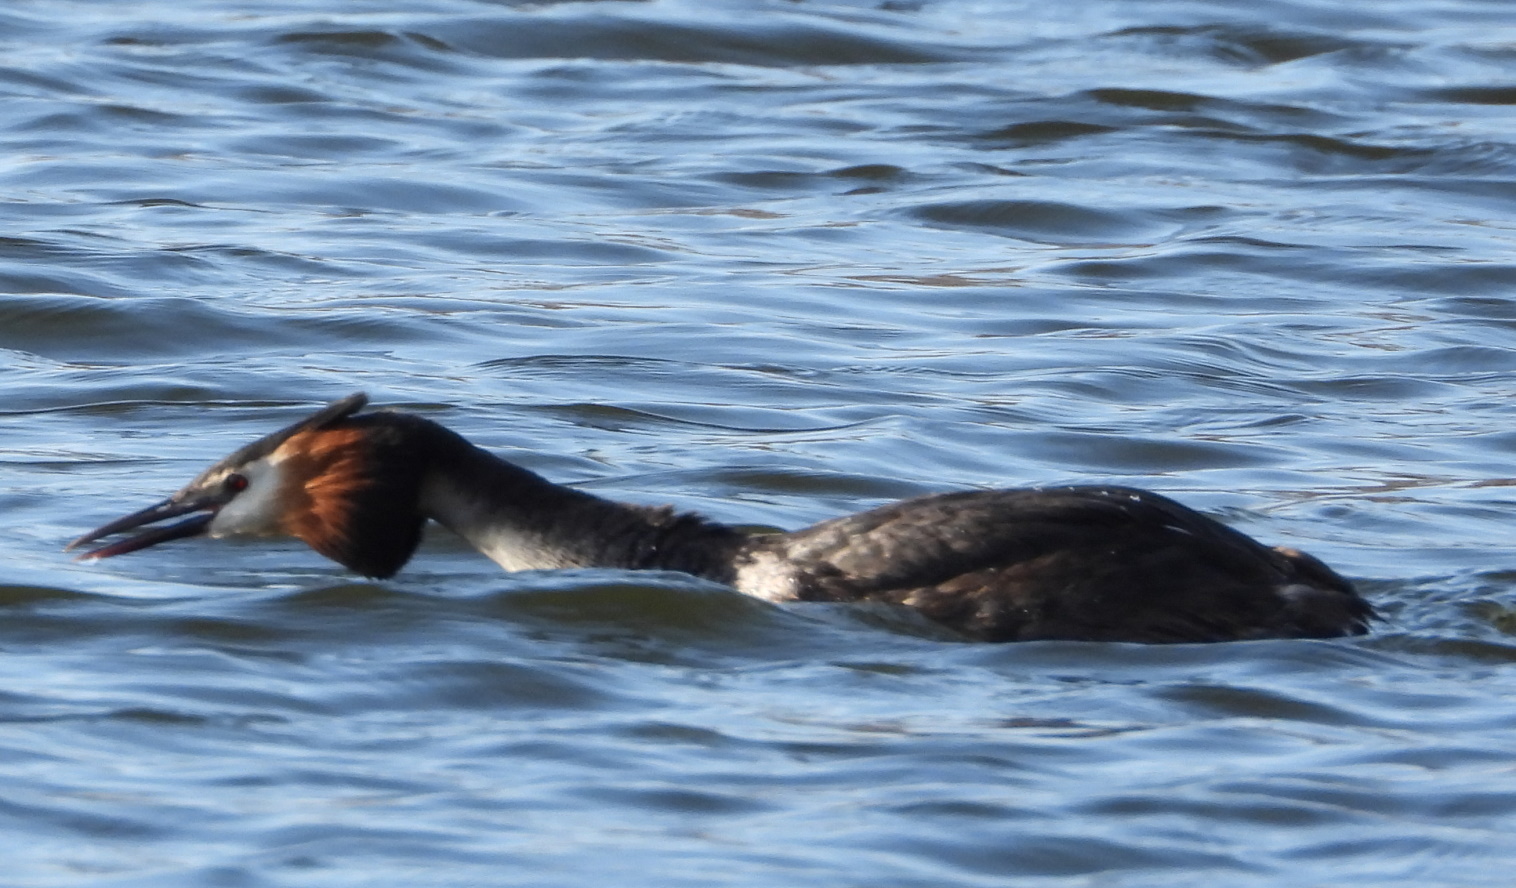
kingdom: Animalia
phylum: Chordata
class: Aves
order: Podicipediformes
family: Podicipedidae
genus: Podiceps
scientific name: Podiceps cristatus
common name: Great crested grebe
